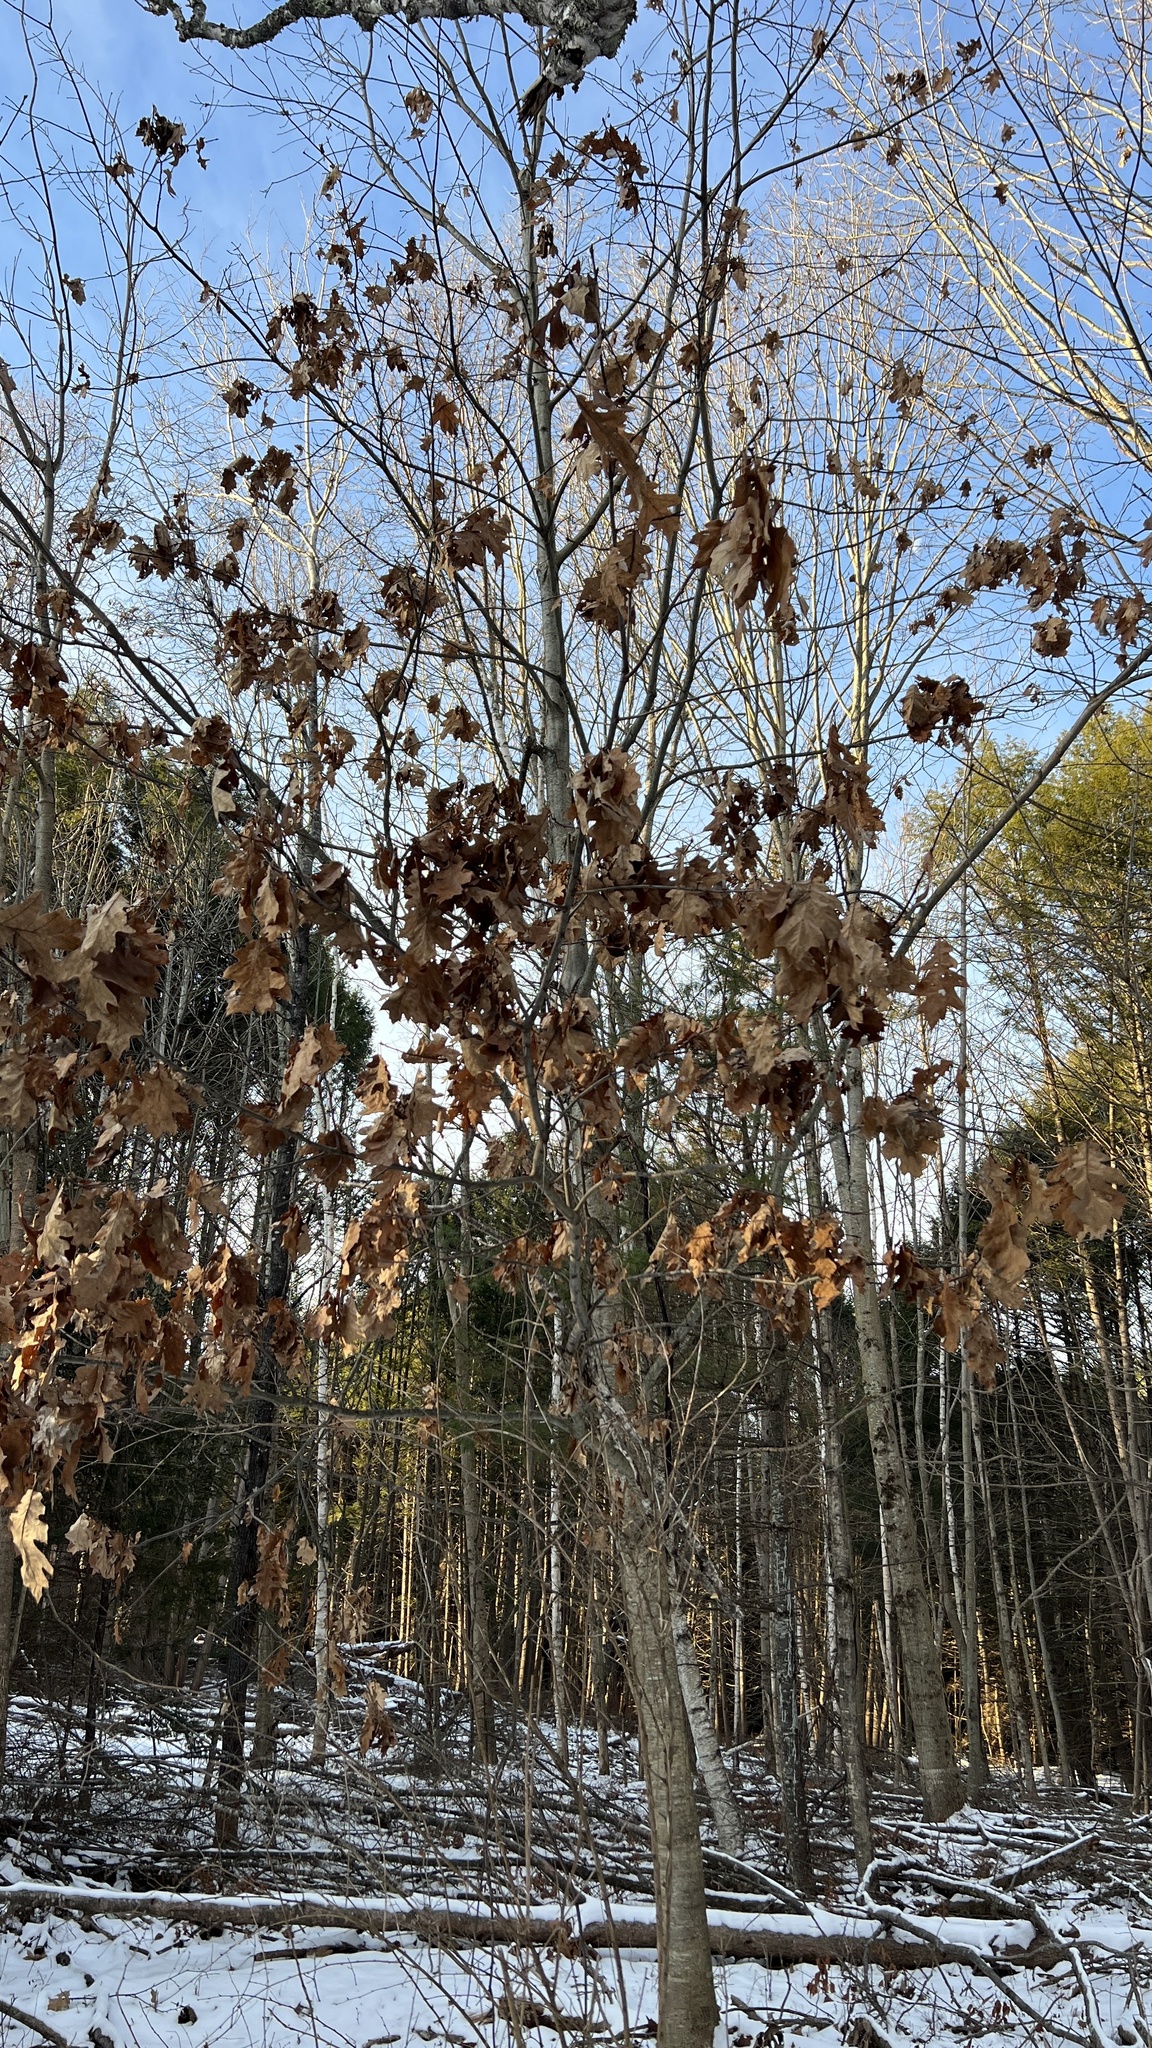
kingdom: Plantae
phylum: Tracheophyta
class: Magnoliopsida
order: Fagales
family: Fagaceae
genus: Quercus
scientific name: Quercus rubra
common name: Red oak
